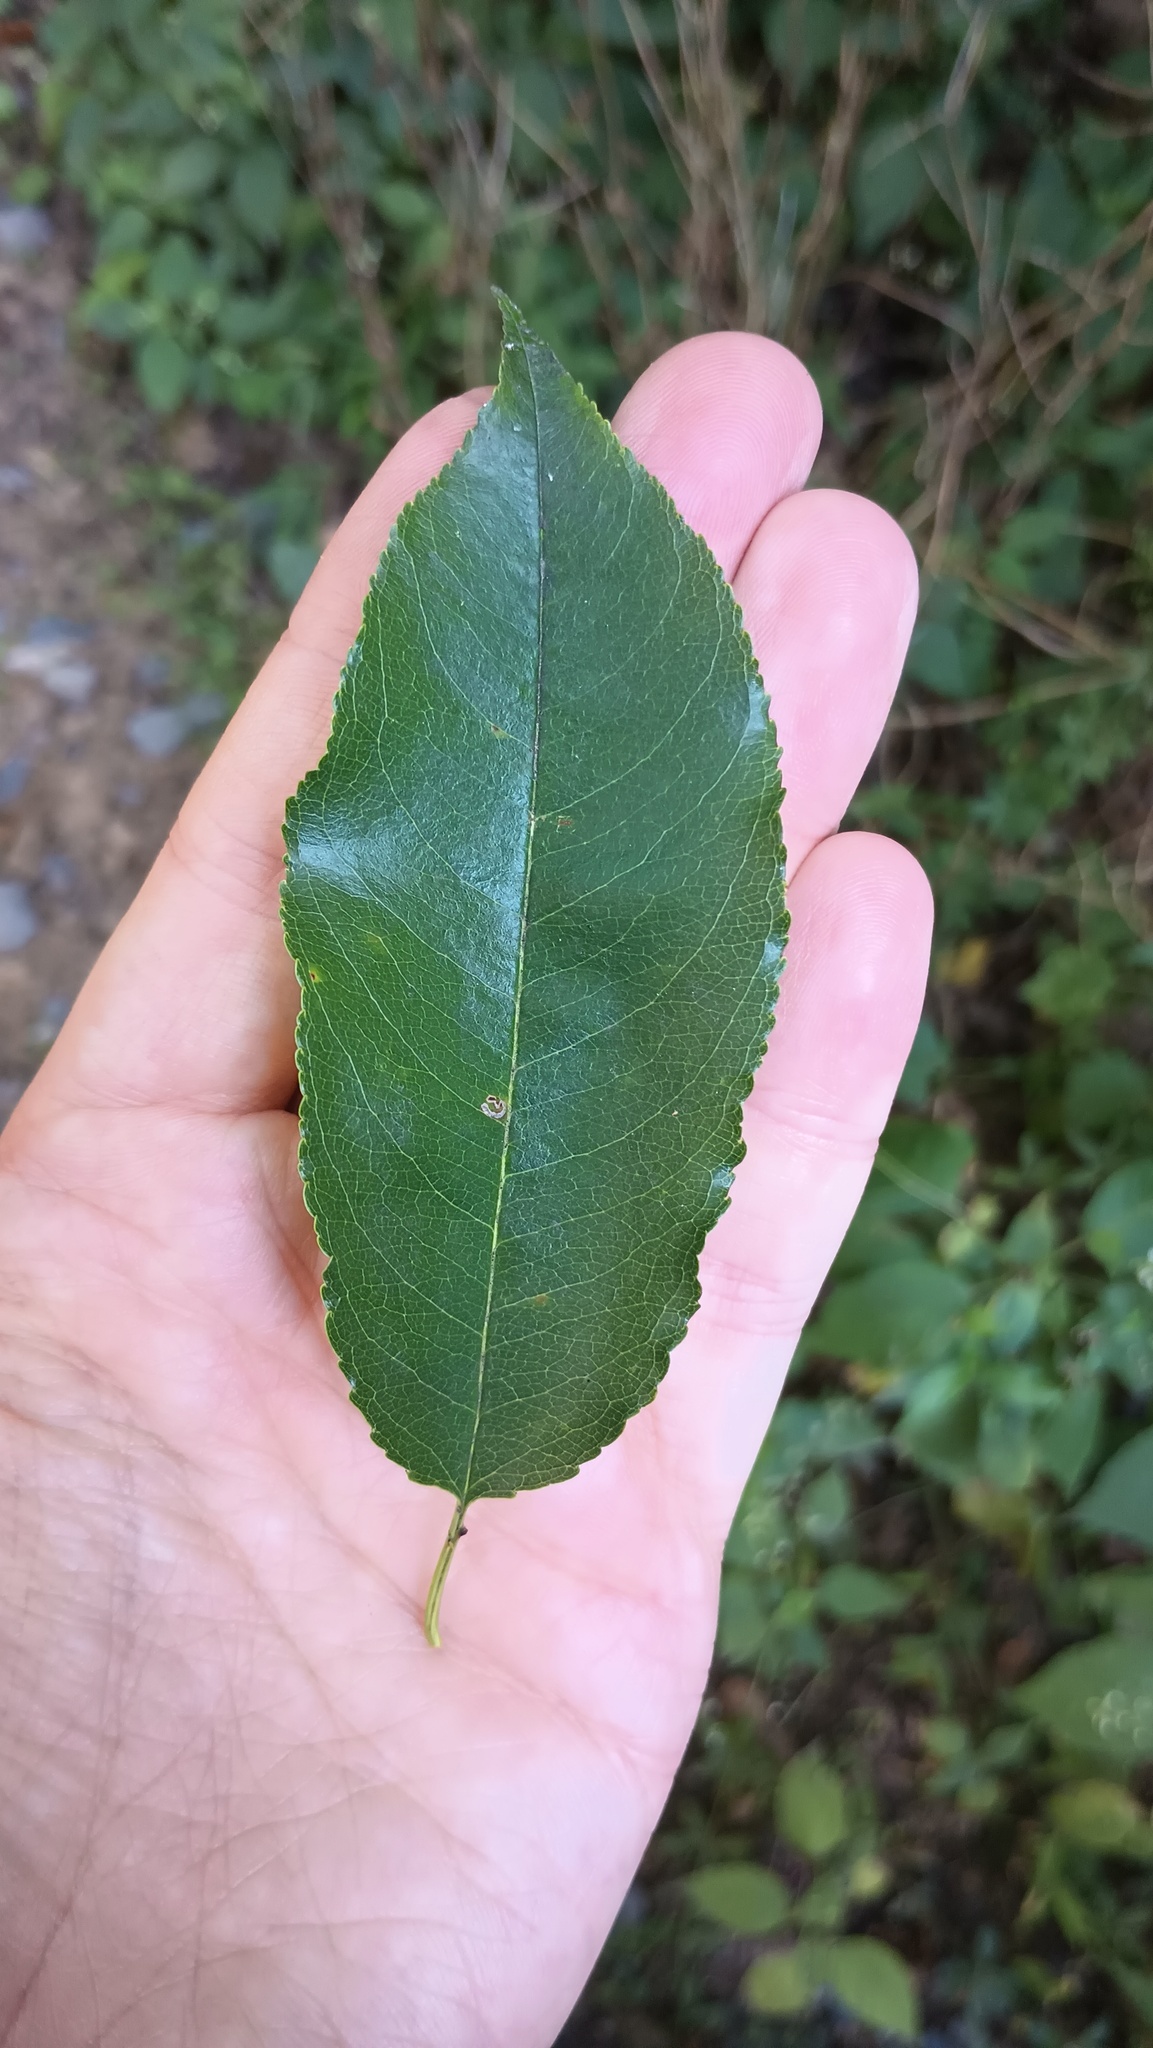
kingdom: Plantae
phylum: Tracheophyta
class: Magnoliopsida
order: Rosales
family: Rosaceae
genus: Prunus
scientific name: Prunus serotina
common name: Black cherry
